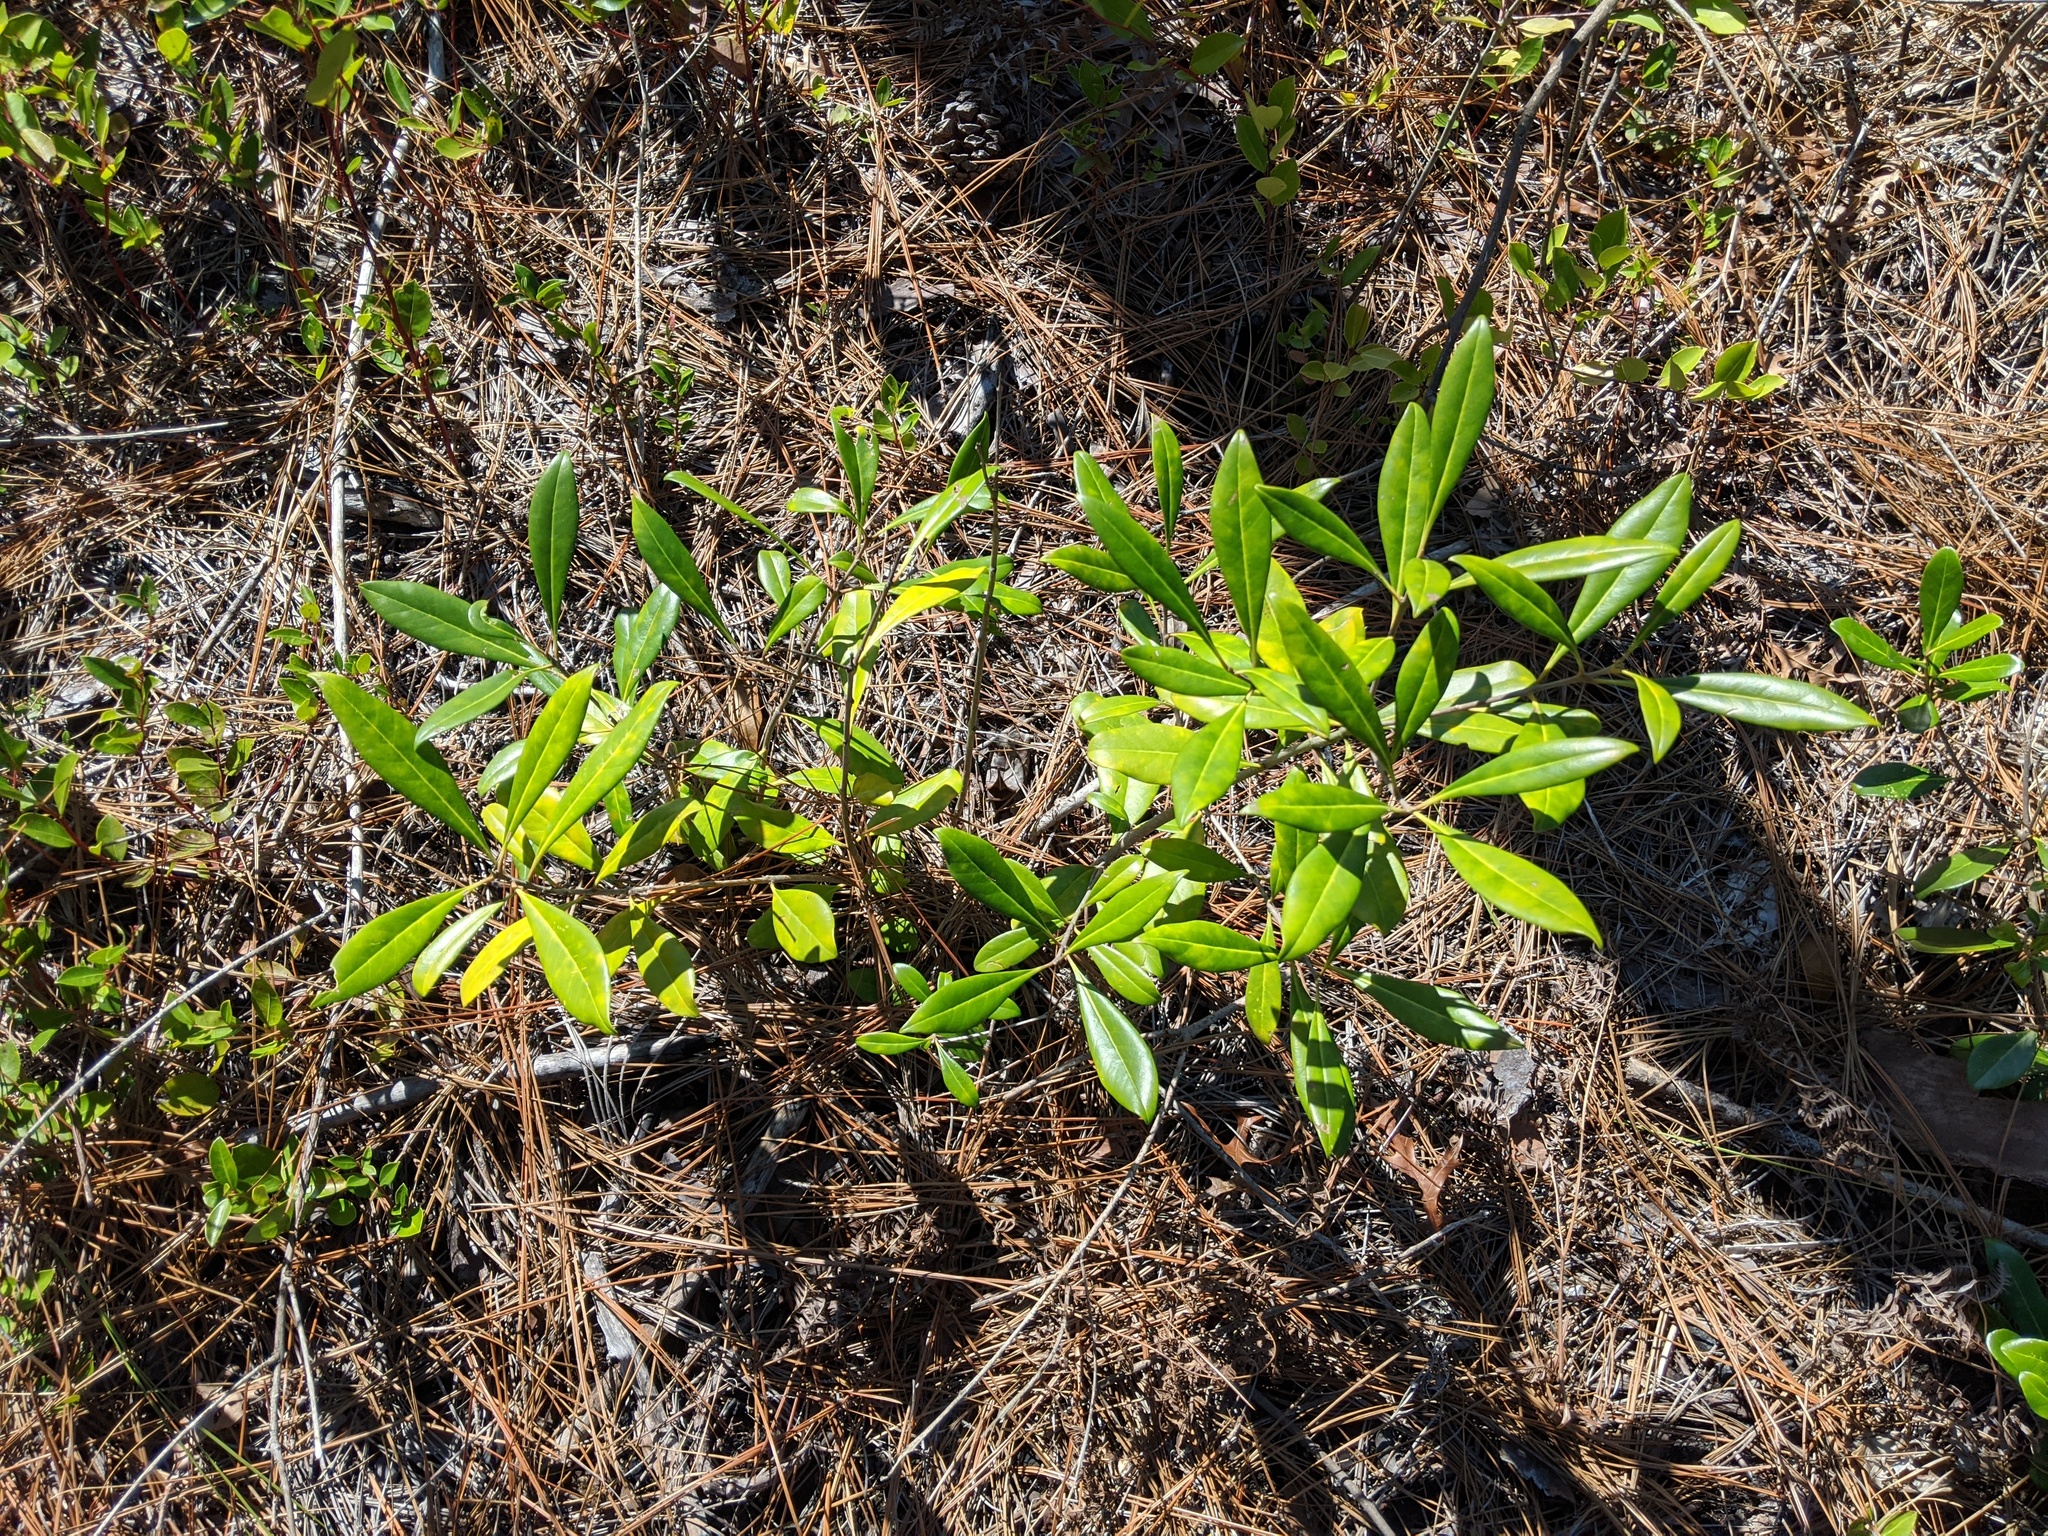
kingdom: Plantae
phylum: Tracheophyta
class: Magnoliopsida
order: Lamiales
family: Oleaceae
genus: Cartrema
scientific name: Cartrema americana
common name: Devilwood
